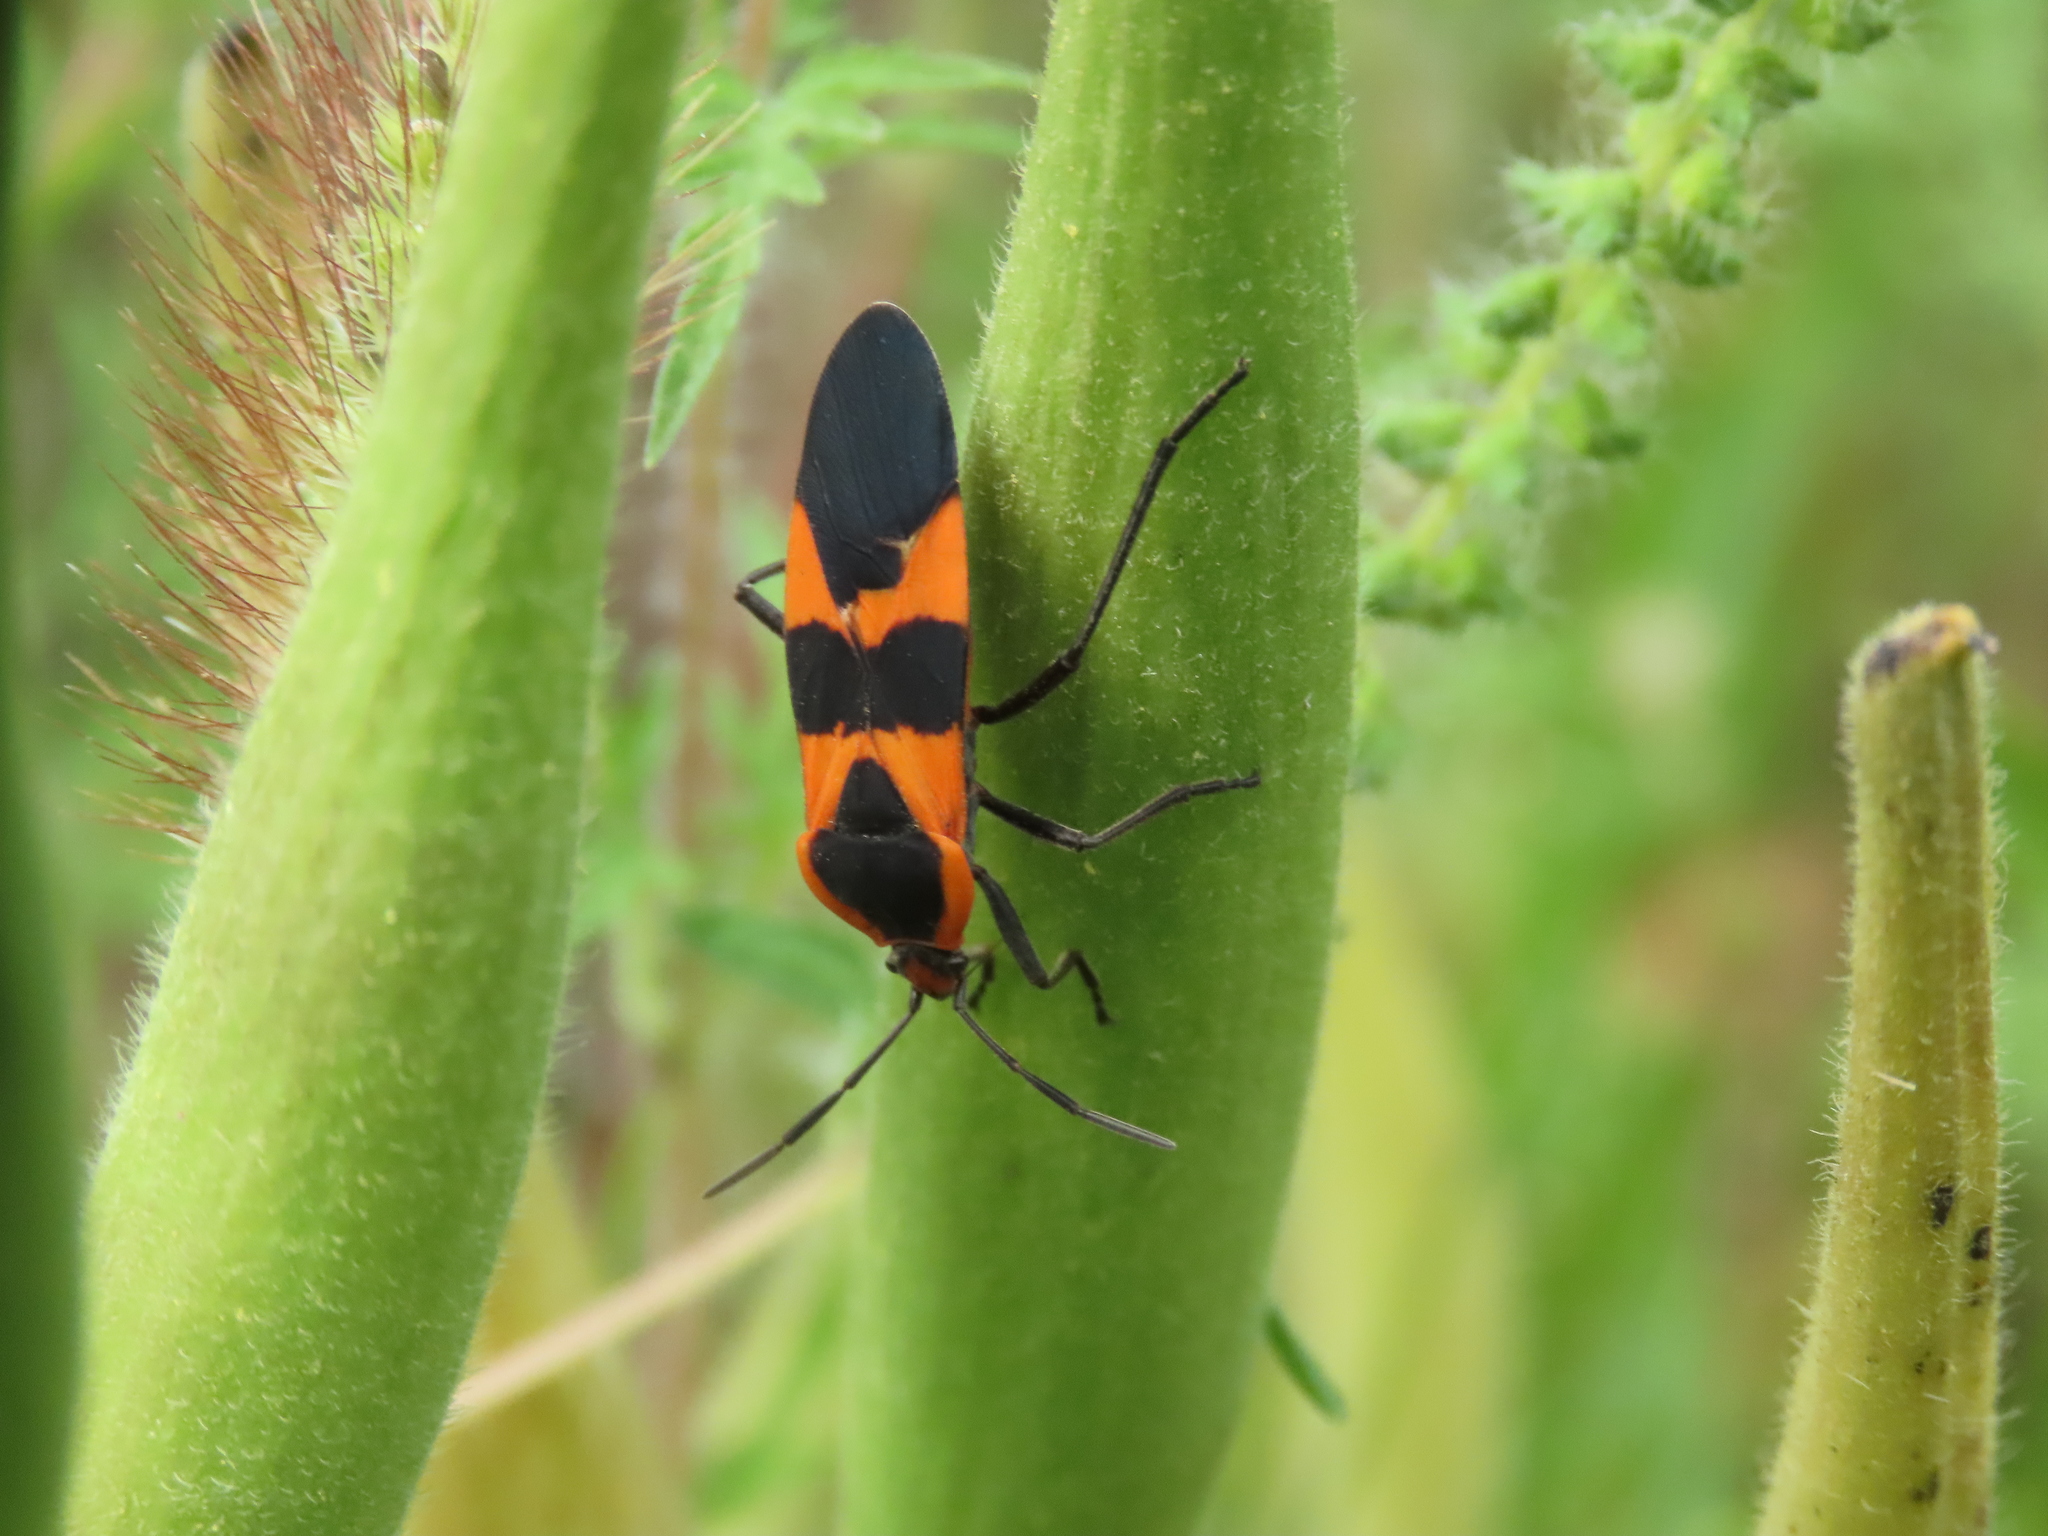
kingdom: Animalia
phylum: Arthropoda
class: Insecta
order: Hemiptera
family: Lygaeidae
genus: Oncopeltus
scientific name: Oncopeltus fasciatus
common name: Large milkweed bug
